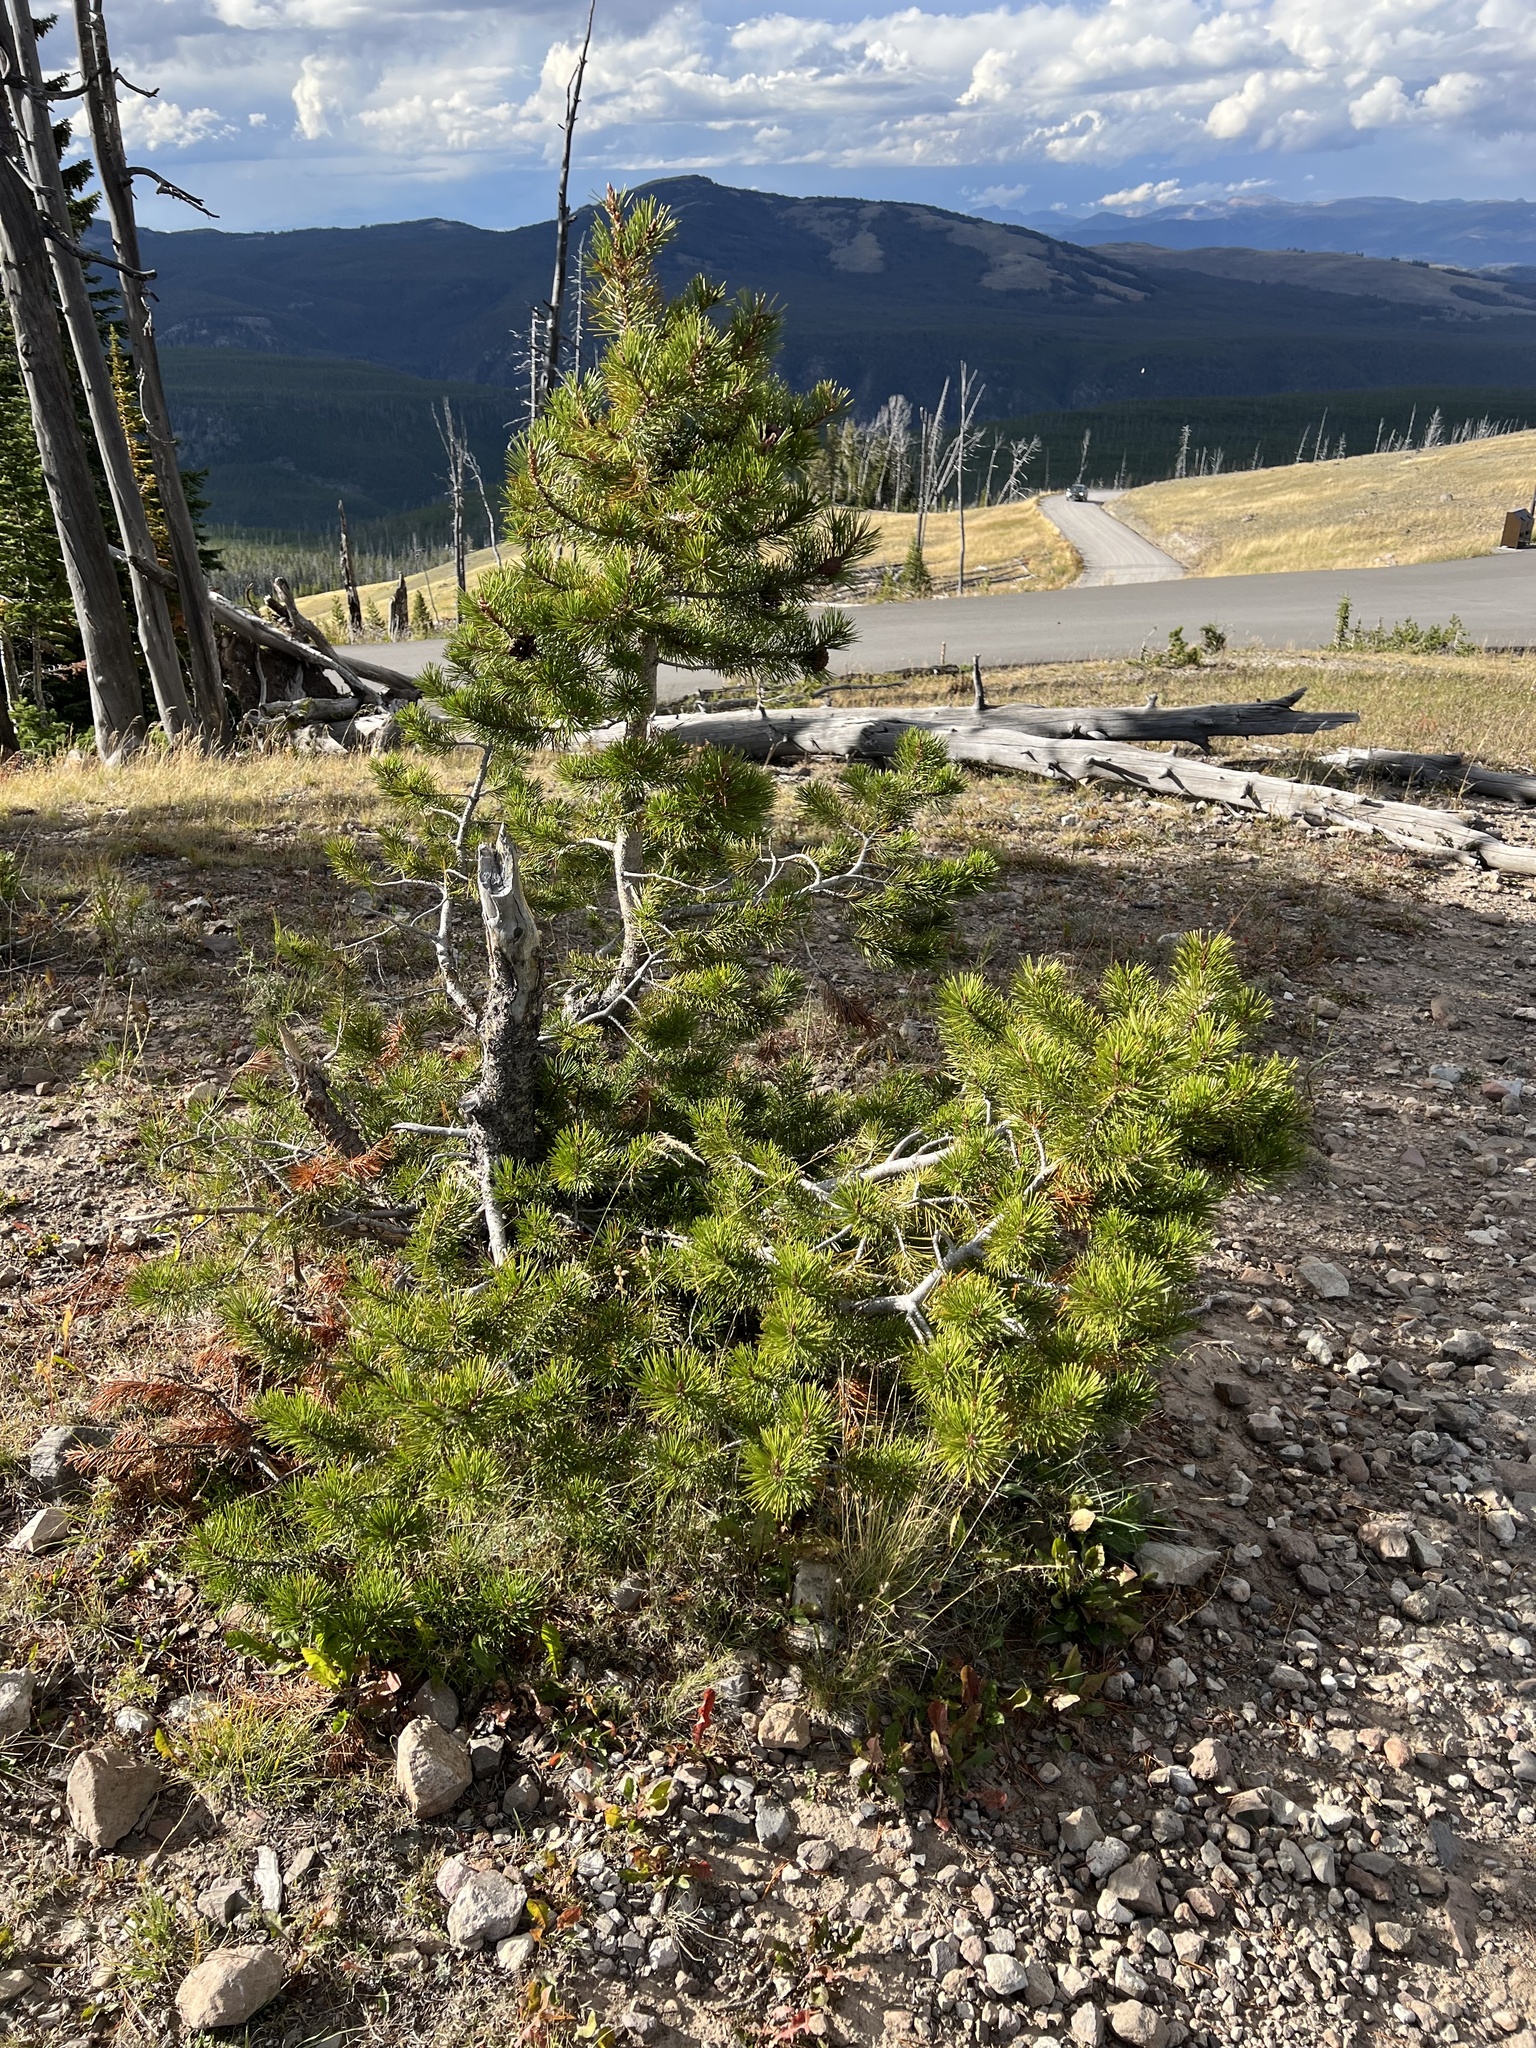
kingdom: Plantae
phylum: Tracheophyta
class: Pinopsida
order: Pinales
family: Pinaceae
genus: Pinus
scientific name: Pinus contorta
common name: Lodgepole pine
